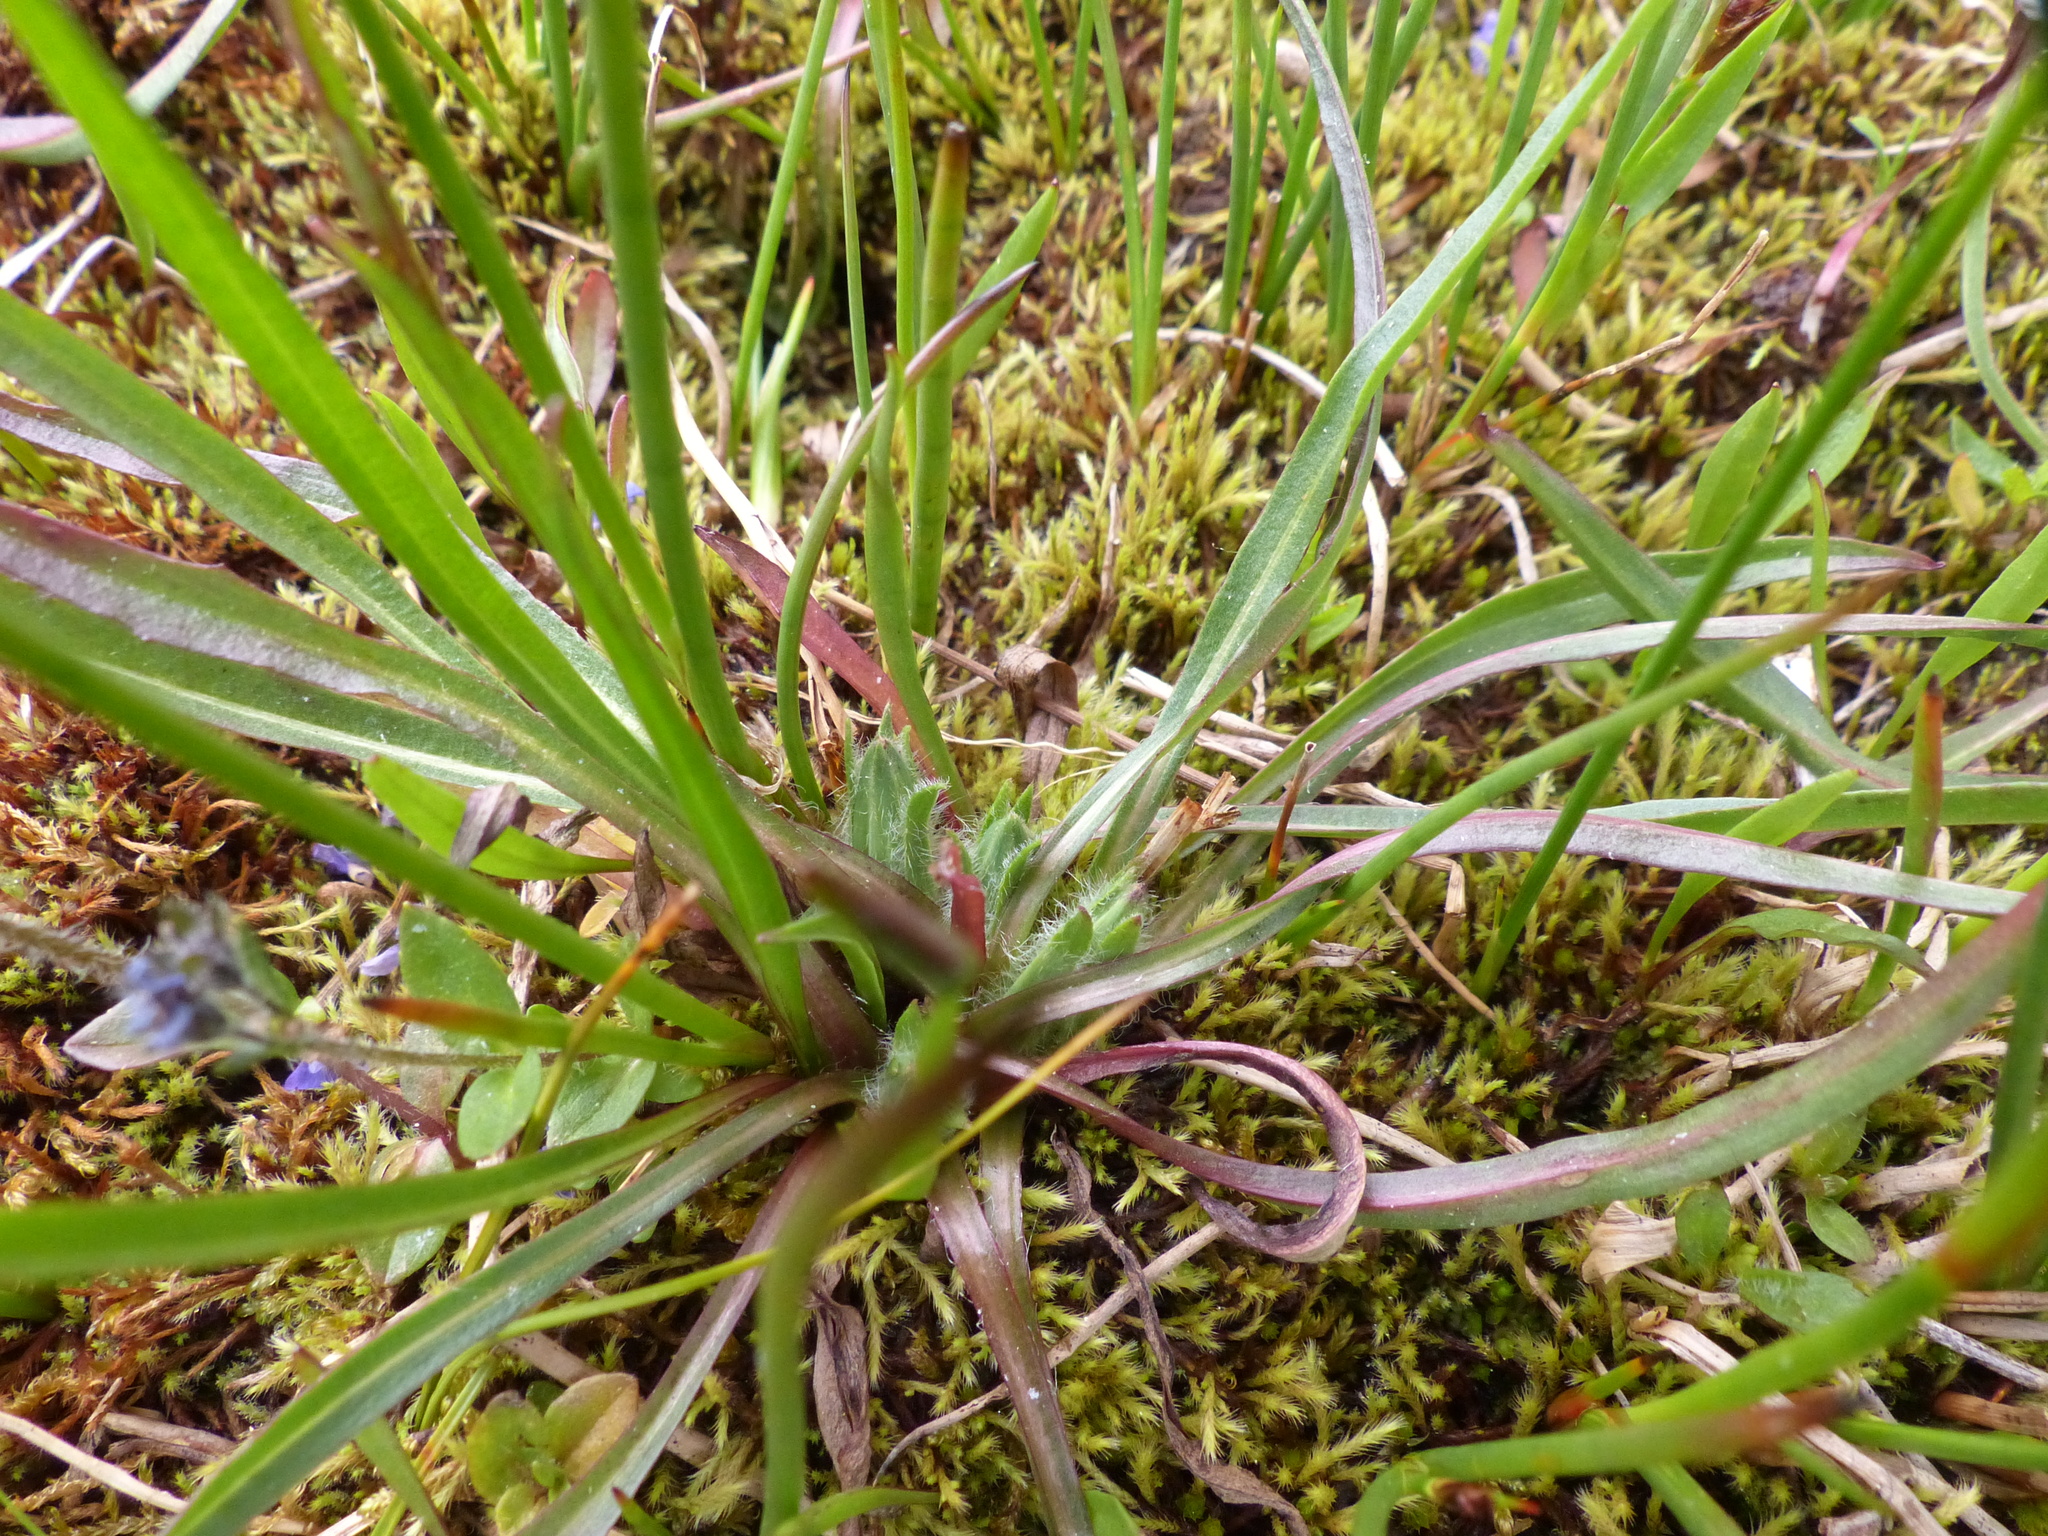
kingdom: Plantae
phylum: Tracheophyta
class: Magnoliopsida
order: Asterales
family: Asteraceae
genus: Agoseris
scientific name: Agoseris aurantiaca
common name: Mountain agoseris
